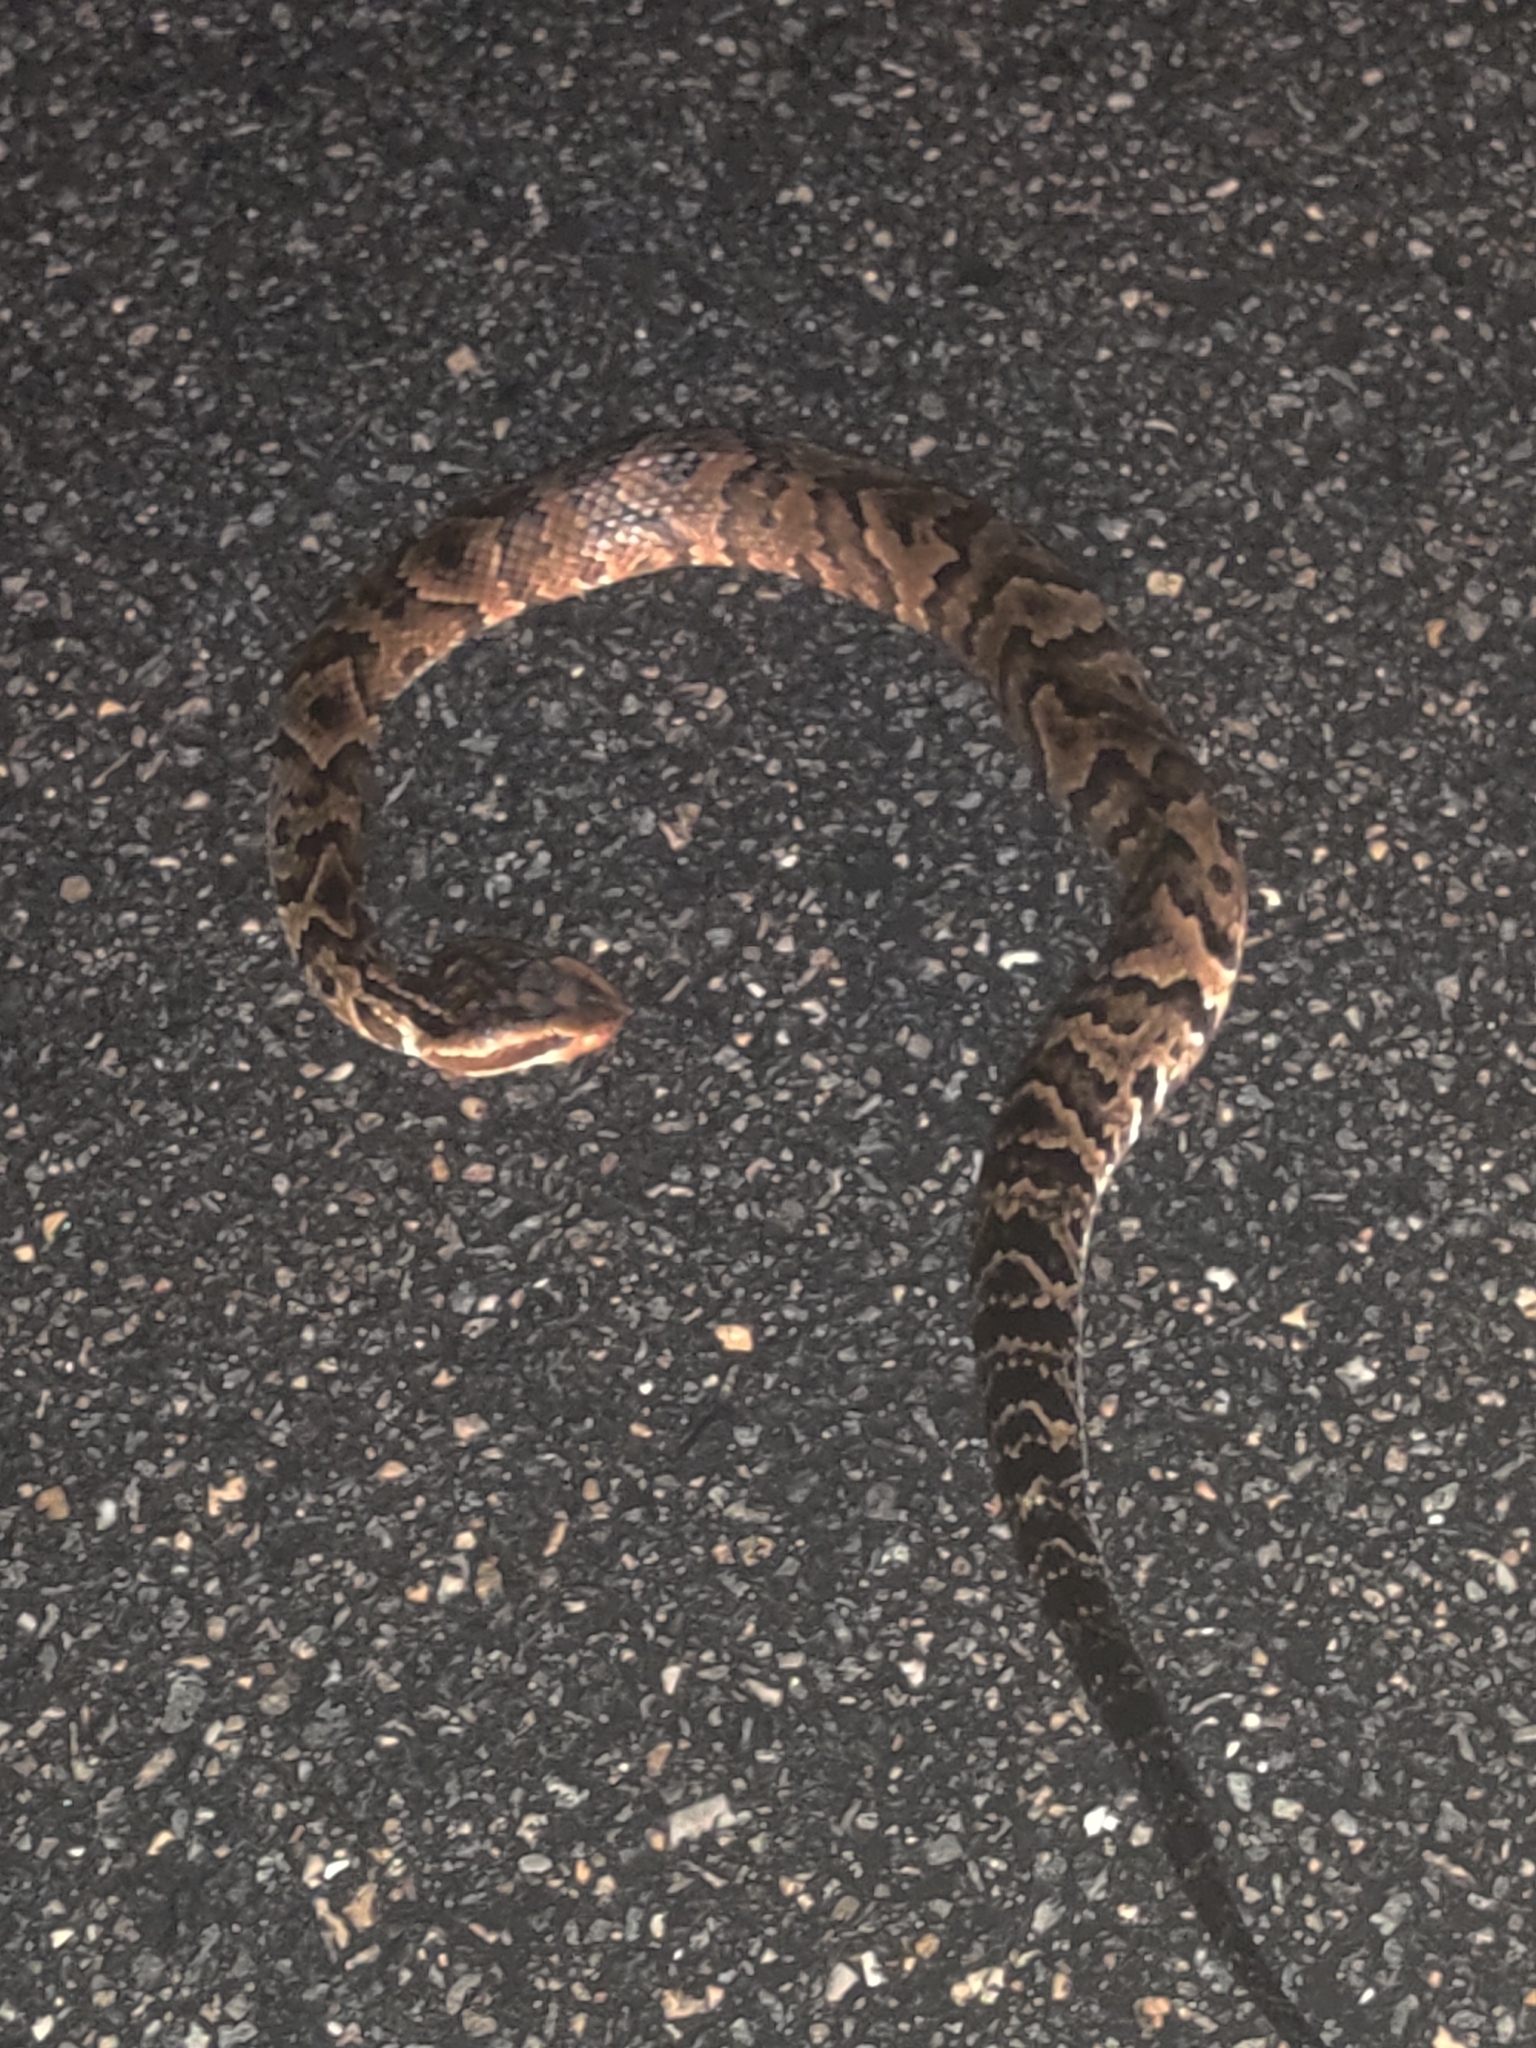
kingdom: Animalia
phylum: Chordata
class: Squamata
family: Viperidae
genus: Agkistrodon
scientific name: Agkistrodon conanti
